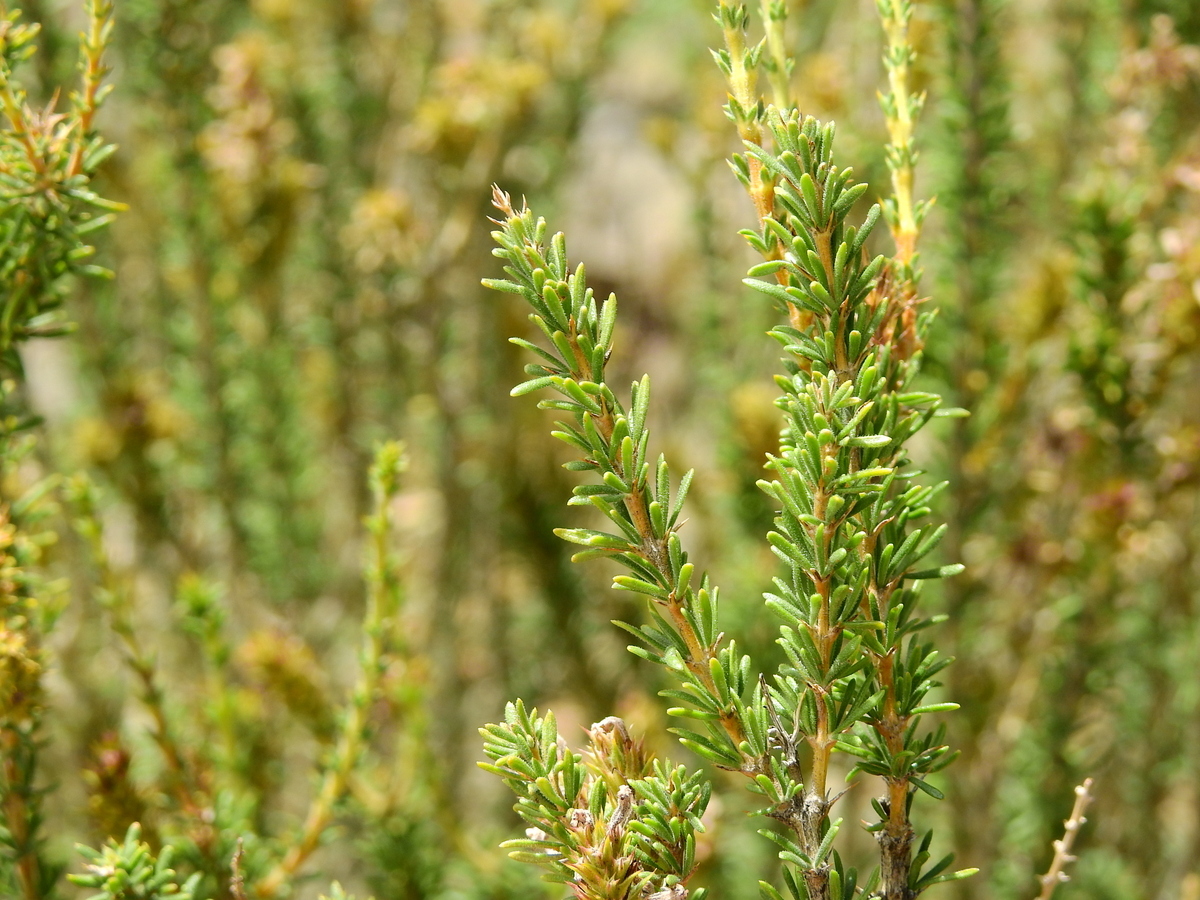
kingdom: Plantae
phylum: Tracheophyta
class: Magnoliopsida
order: Lamiales
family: Verbenaceae
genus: Mulguraea
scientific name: Mulguraea asparagoides
